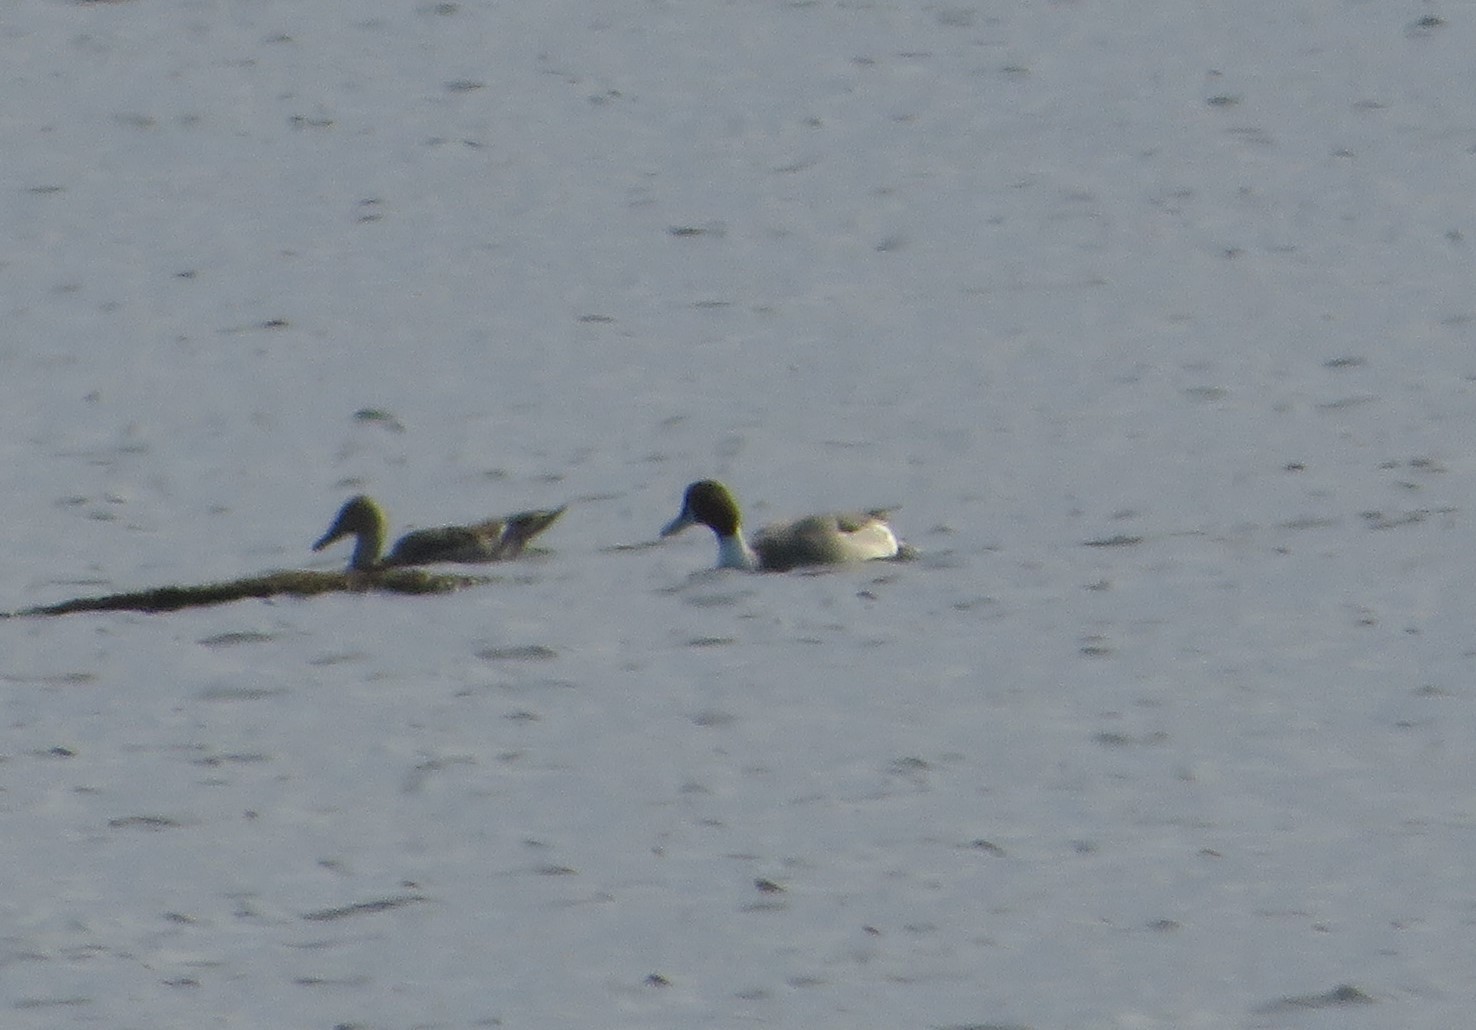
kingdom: Animalia
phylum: Chordata
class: Aves
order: Anseriformes
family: Anatidae
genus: Anas
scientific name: Anas acuta
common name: Northern pintail
